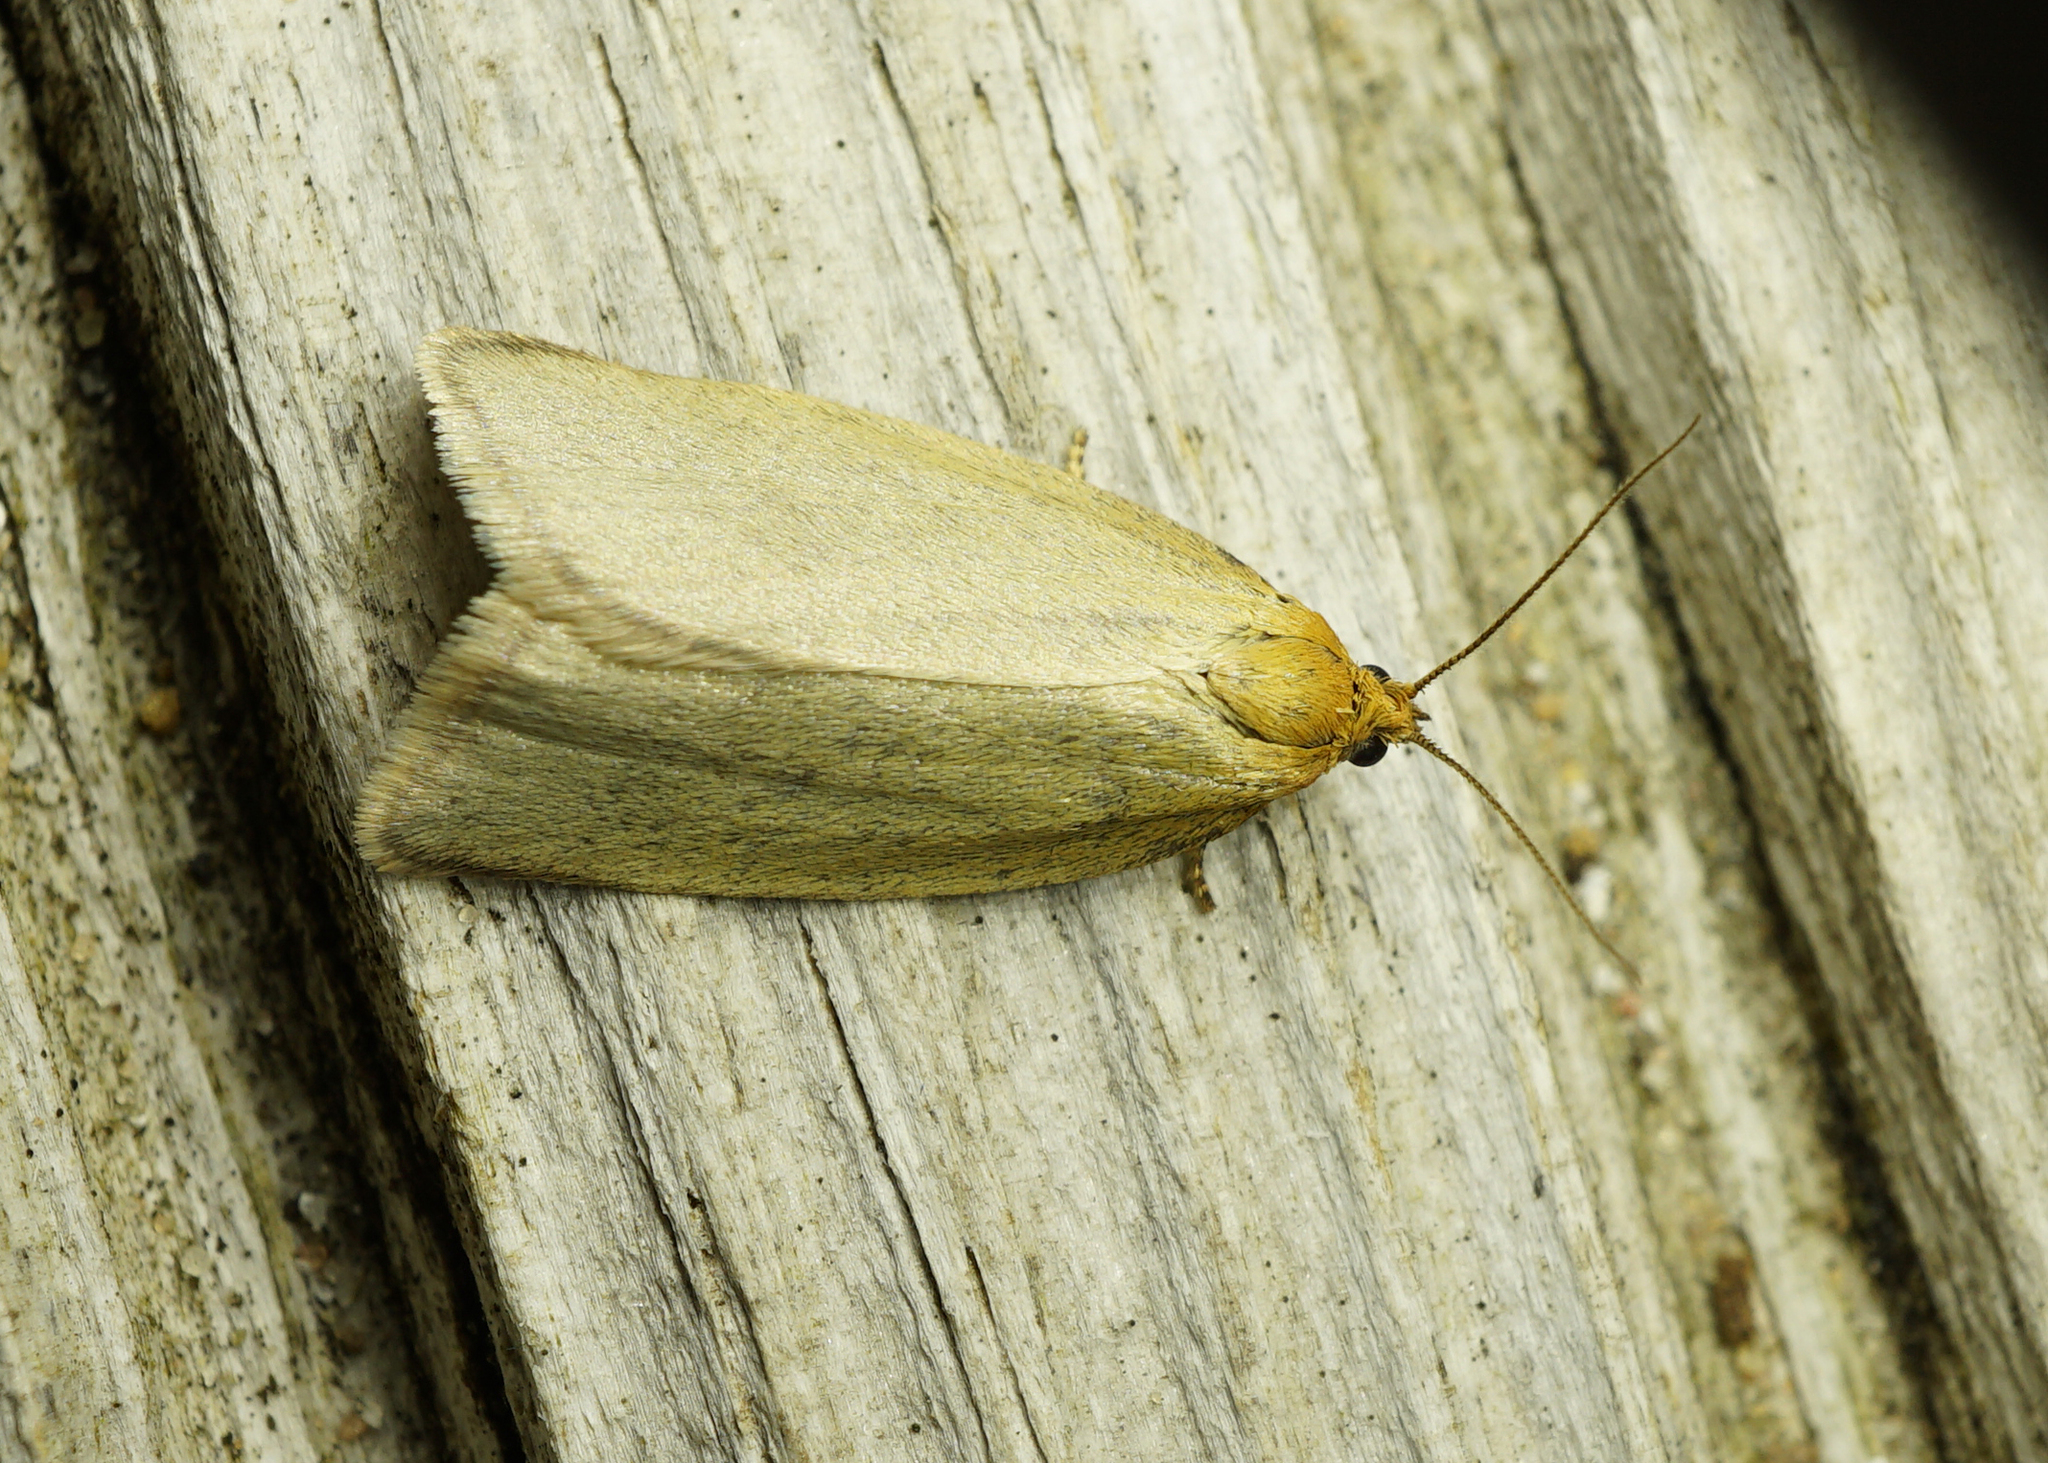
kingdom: Animalia
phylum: Arthropoda
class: Insecta
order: Lepidoptera
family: Tortricidae
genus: Aphelia
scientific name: Aphelia Zelotherses paleana
